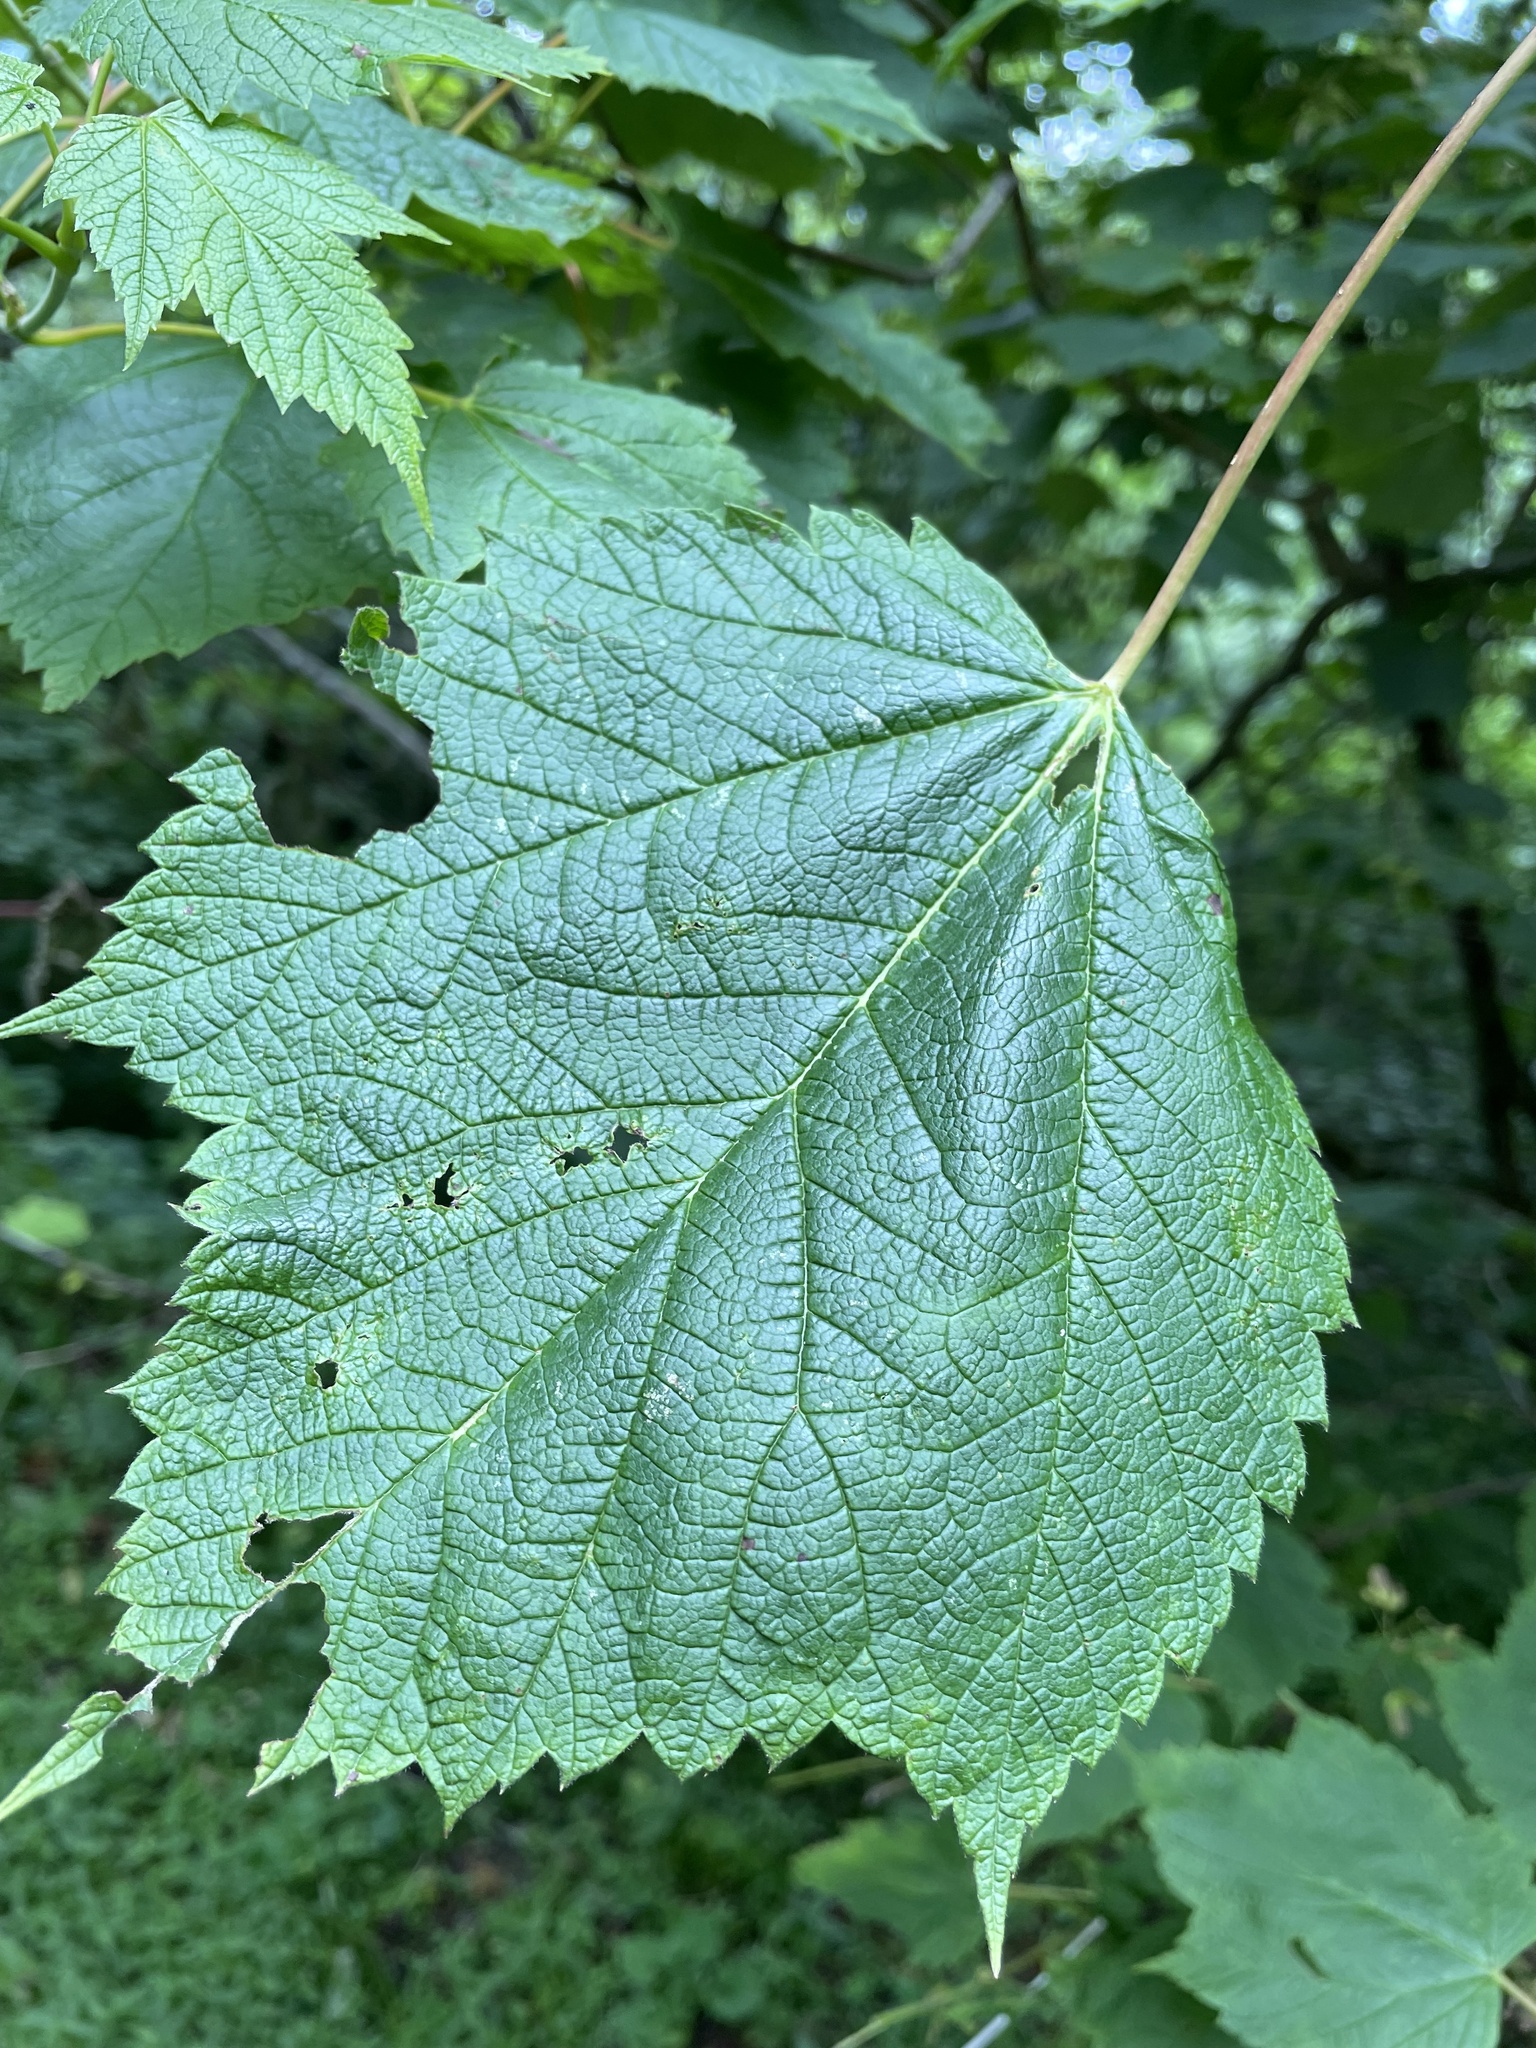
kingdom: Plantae
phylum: Tracheophyta
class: Magnoliopsida
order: Sapindales
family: Sapindaceae
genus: Acer
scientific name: Acer spicatum
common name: Mountain maple
